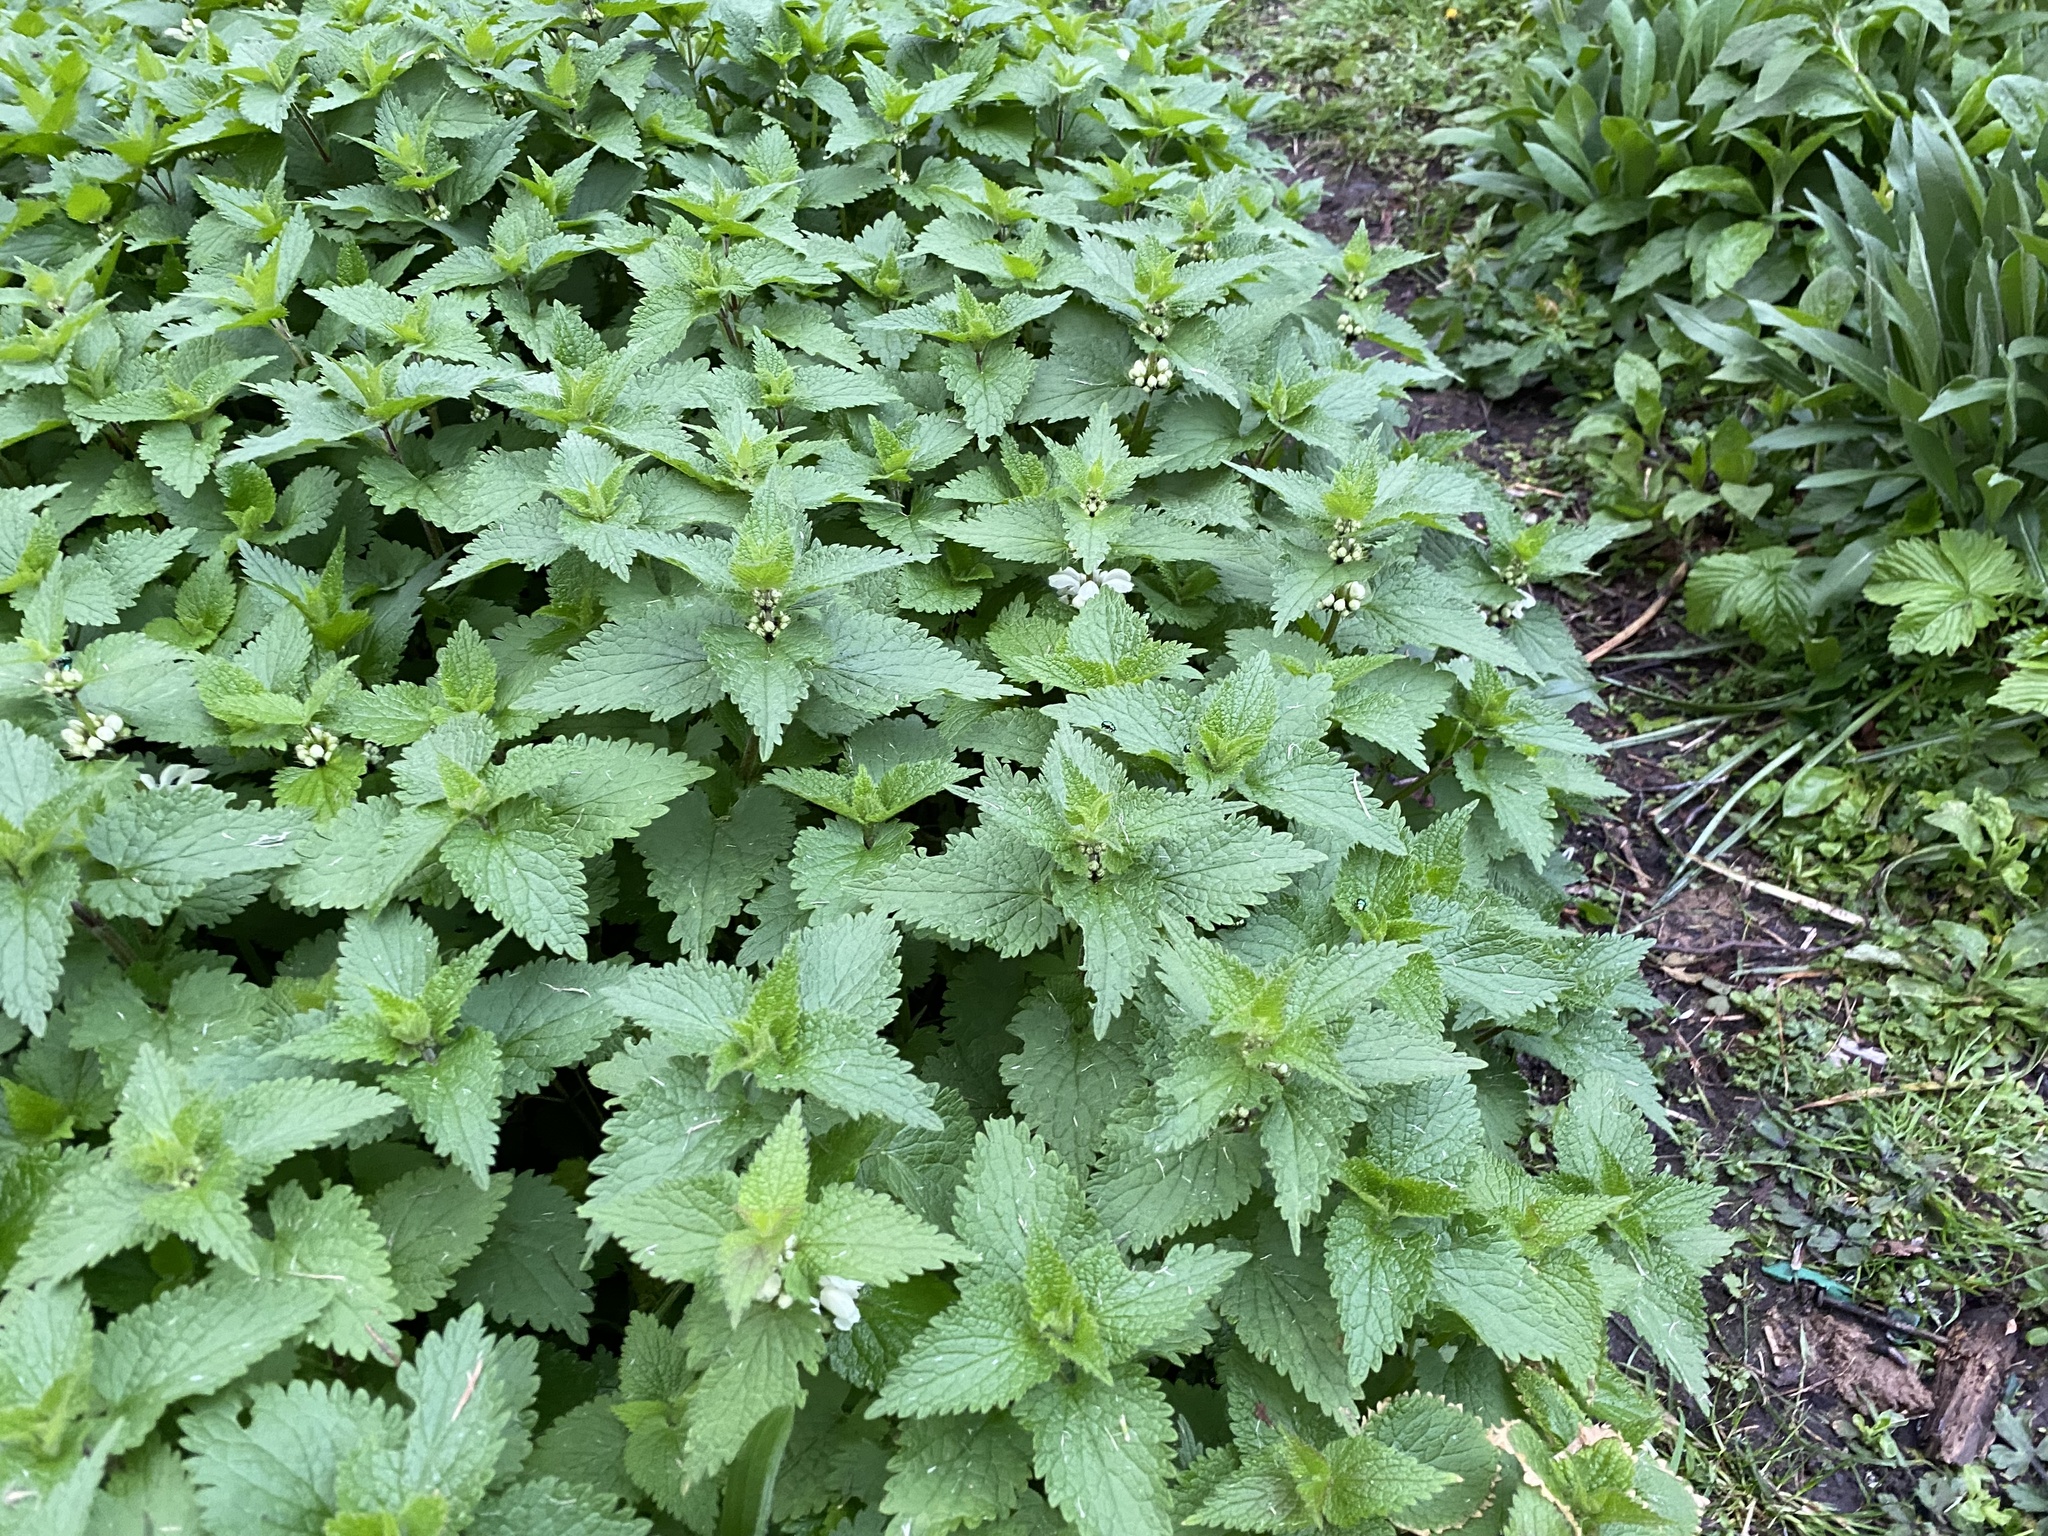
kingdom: Plantae
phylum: Tracheophyta
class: Magnoliopsida
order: Lamiales
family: Lamiaceae
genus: Lamium
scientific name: Lamium album
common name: White dead-nettle
